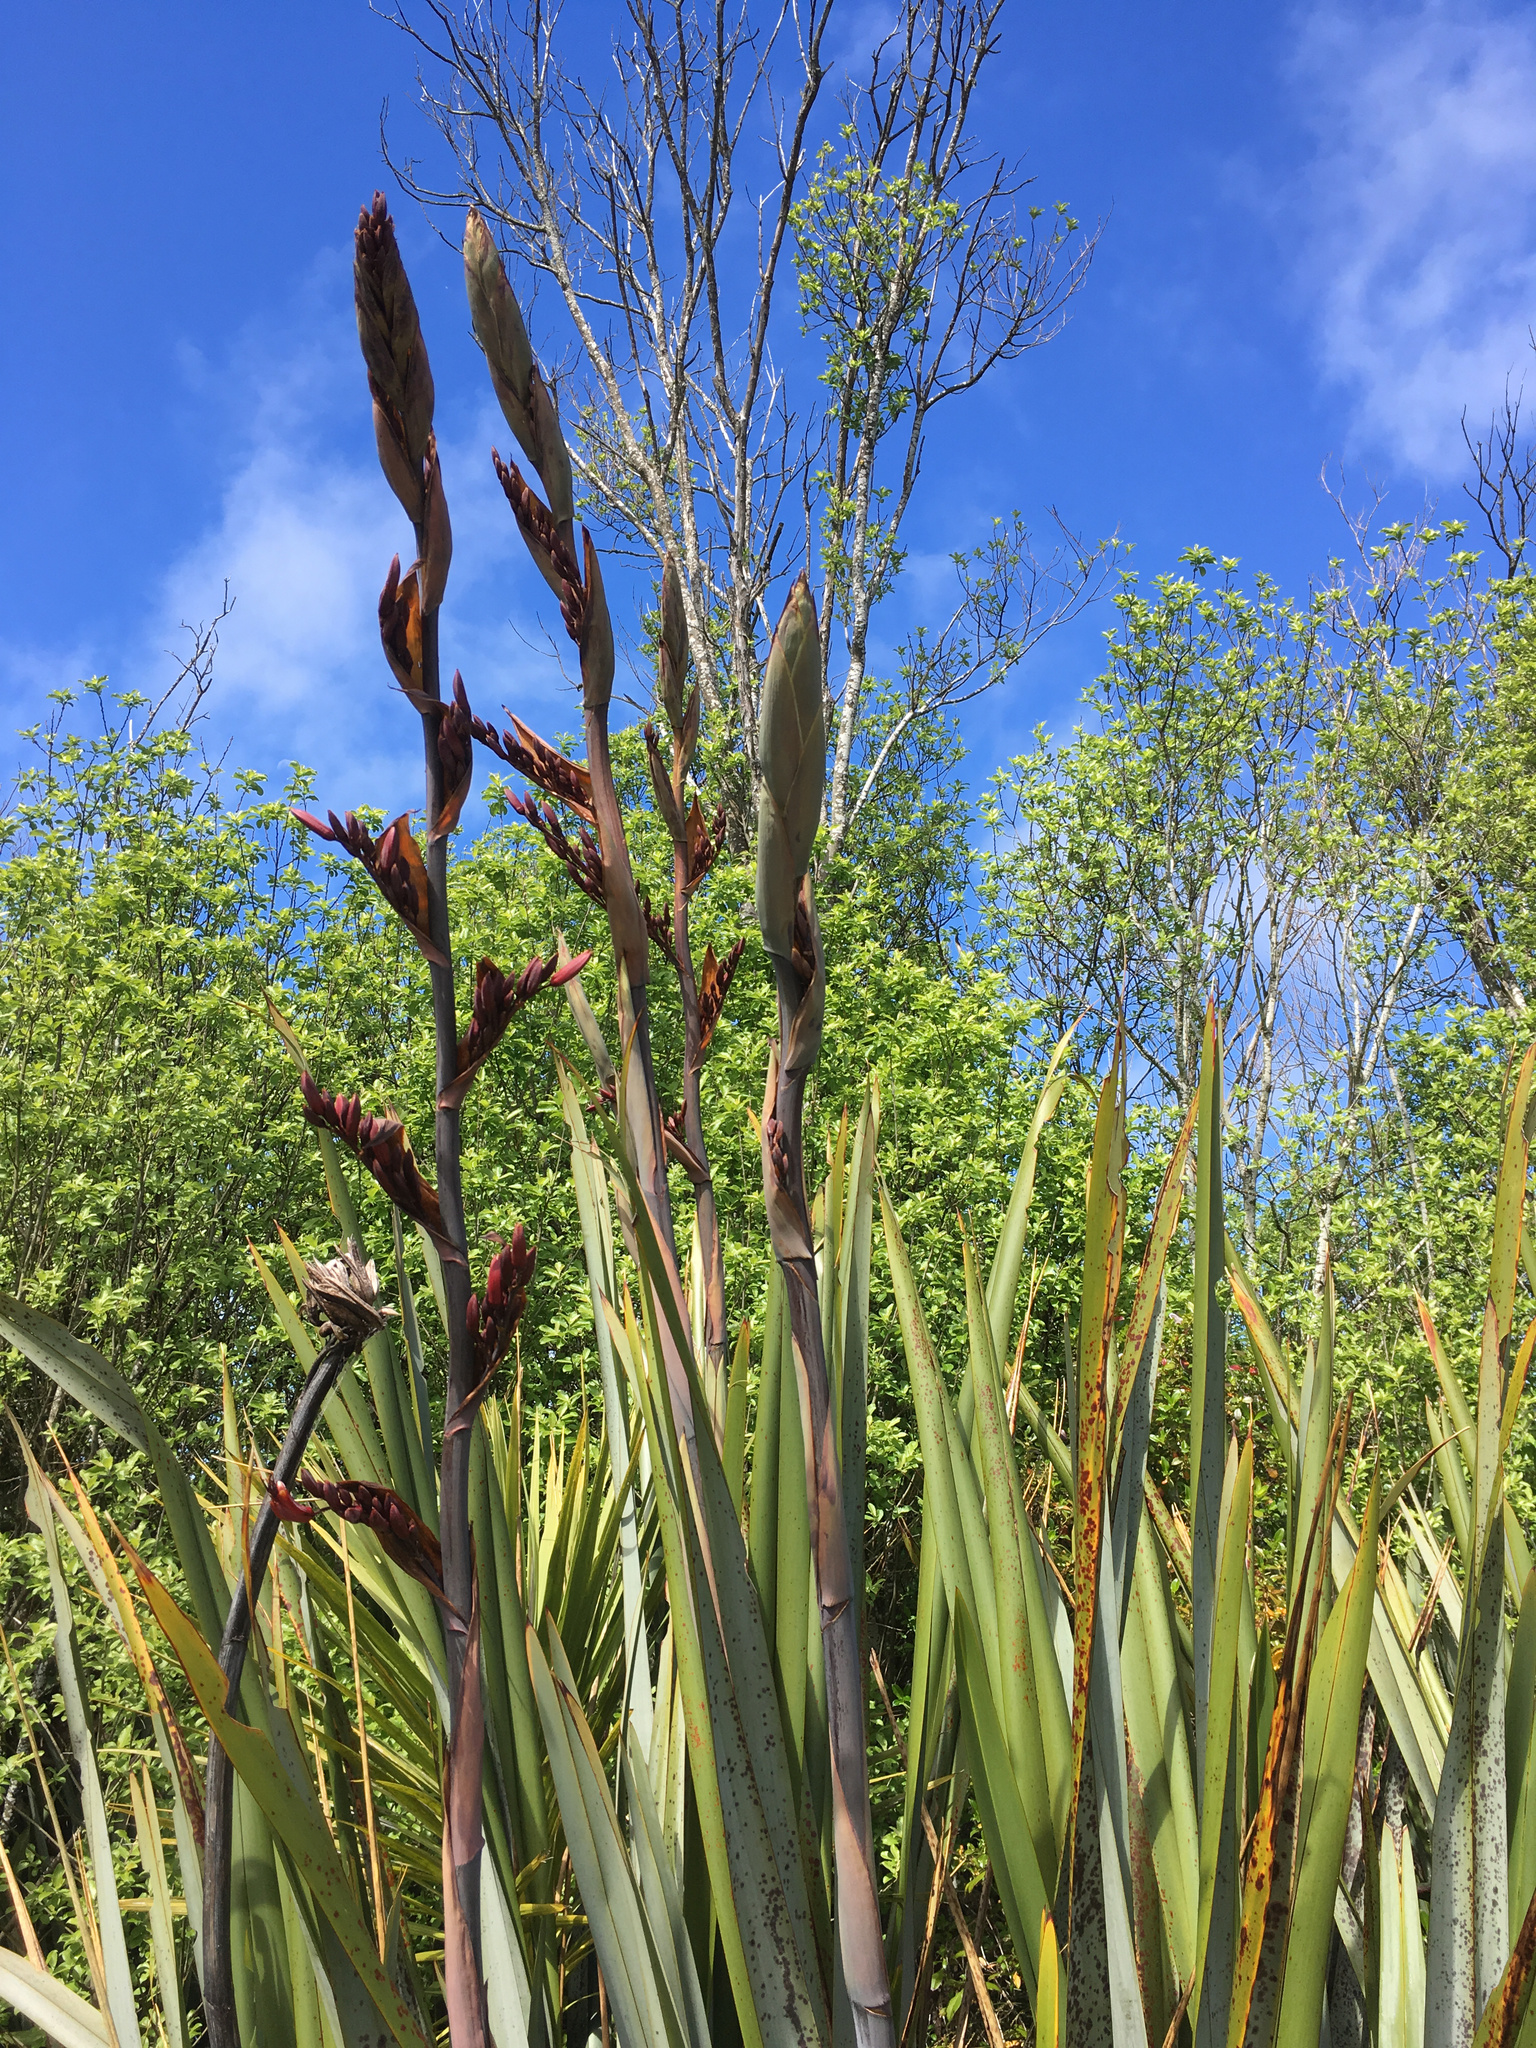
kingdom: Plantae
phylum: Tracheophyta
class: Liliopsida
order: Asparagales
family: Asphodelaceae
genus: Phormium
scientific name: Phormium tenax
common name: New zealand flax
